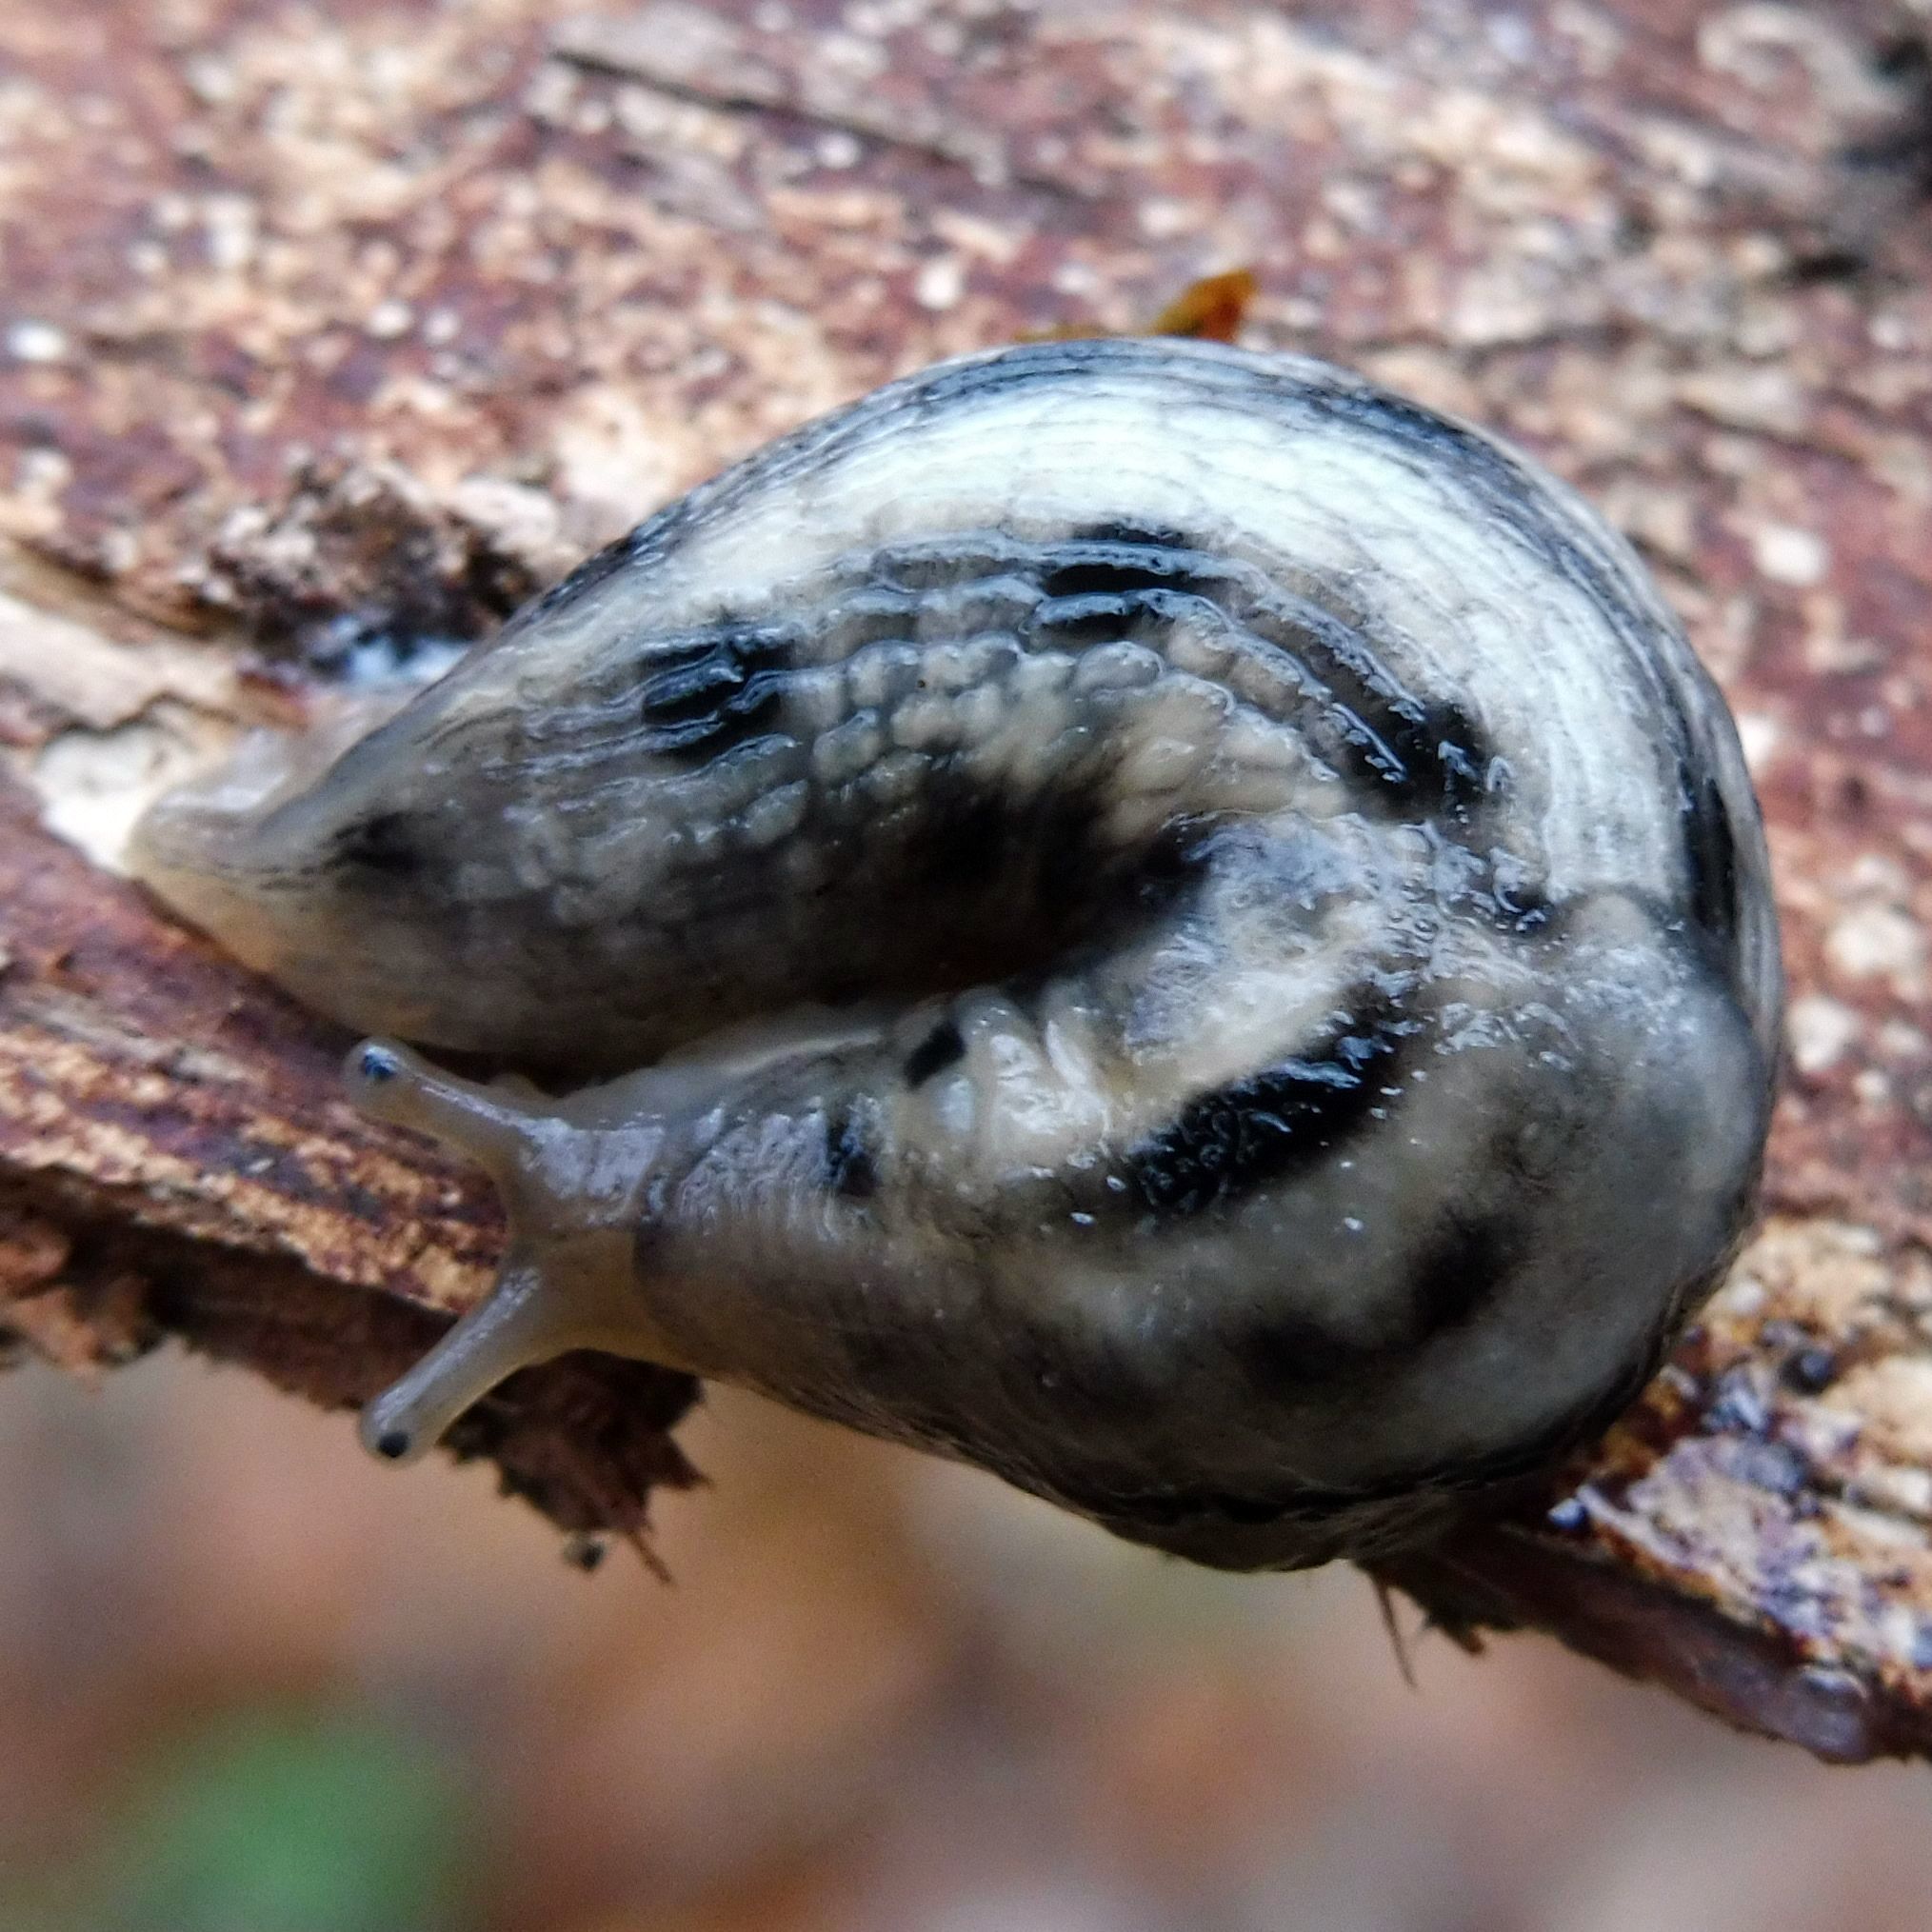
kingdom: Animalia
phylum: Mollusca
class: Gastropoda
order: Stylommatophora
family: Limacidae
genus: Lehmannia
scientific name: Lehmannia marginata
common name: Tree slug
